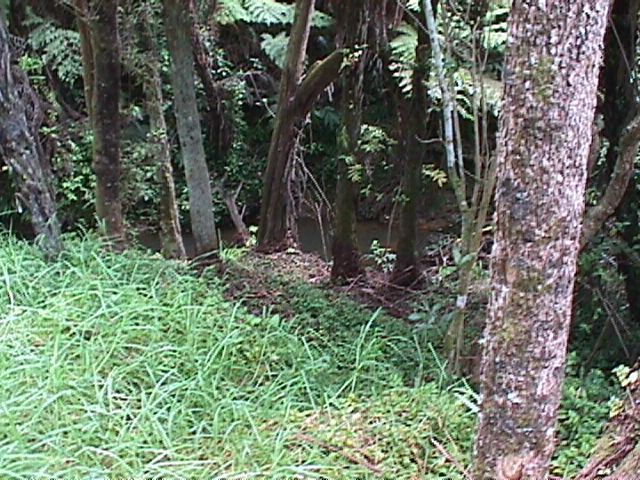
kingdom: Plantae
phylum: Tracheophyta
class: Liliopsida
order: Poales
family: Poaceae
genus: Cenchrus
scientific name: Cenchrus clandestinus
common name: Kikuyugrass
